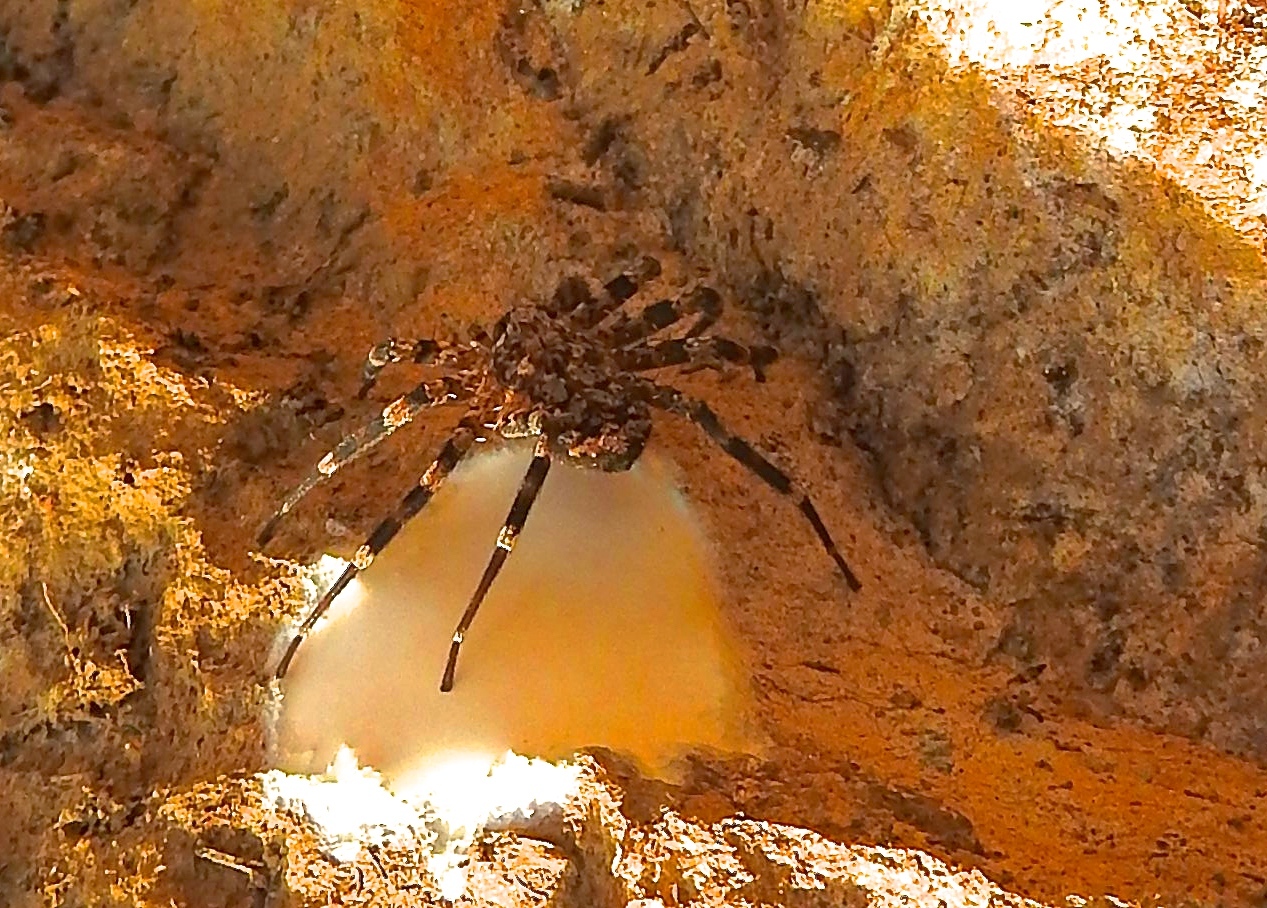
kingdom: Animalia
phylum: Arthropoda
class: Arachnida
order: Araneae
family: Selenopidae
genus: Selenops
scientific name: Selenops mexicanus
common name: Wall crab spiders
